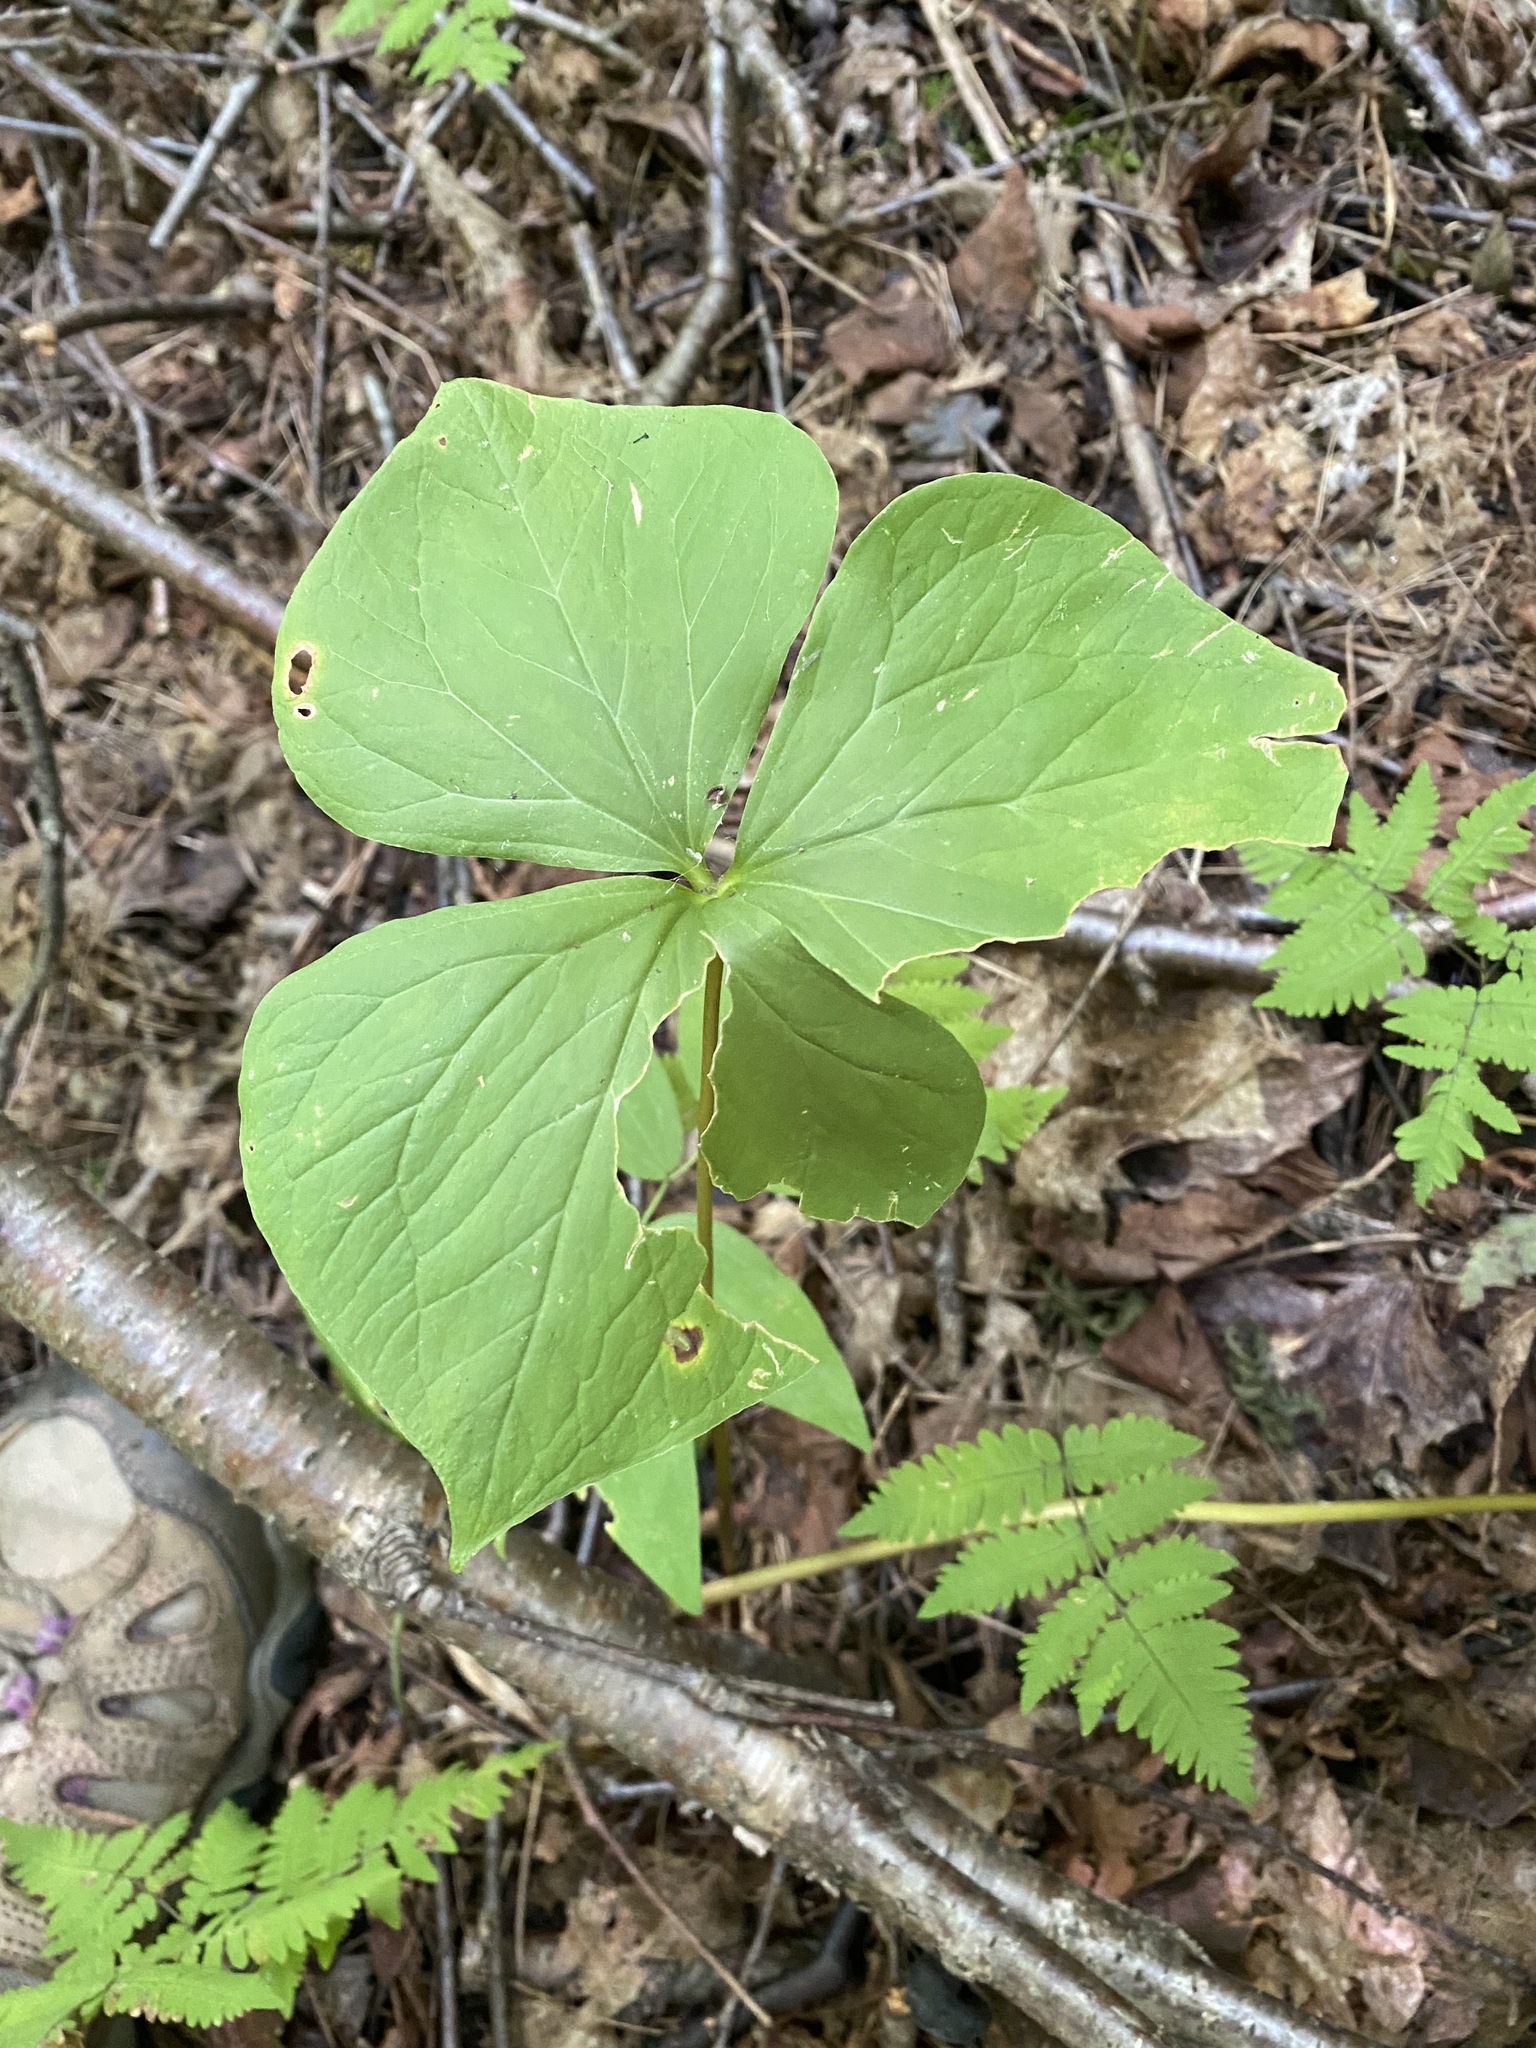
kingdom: Plantae
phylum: Tracheophyta
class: Liliopsida
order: Liliales
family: Melanthiaceae
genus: Trillium
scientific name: Trillium cernuum
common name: Nodding trillium
